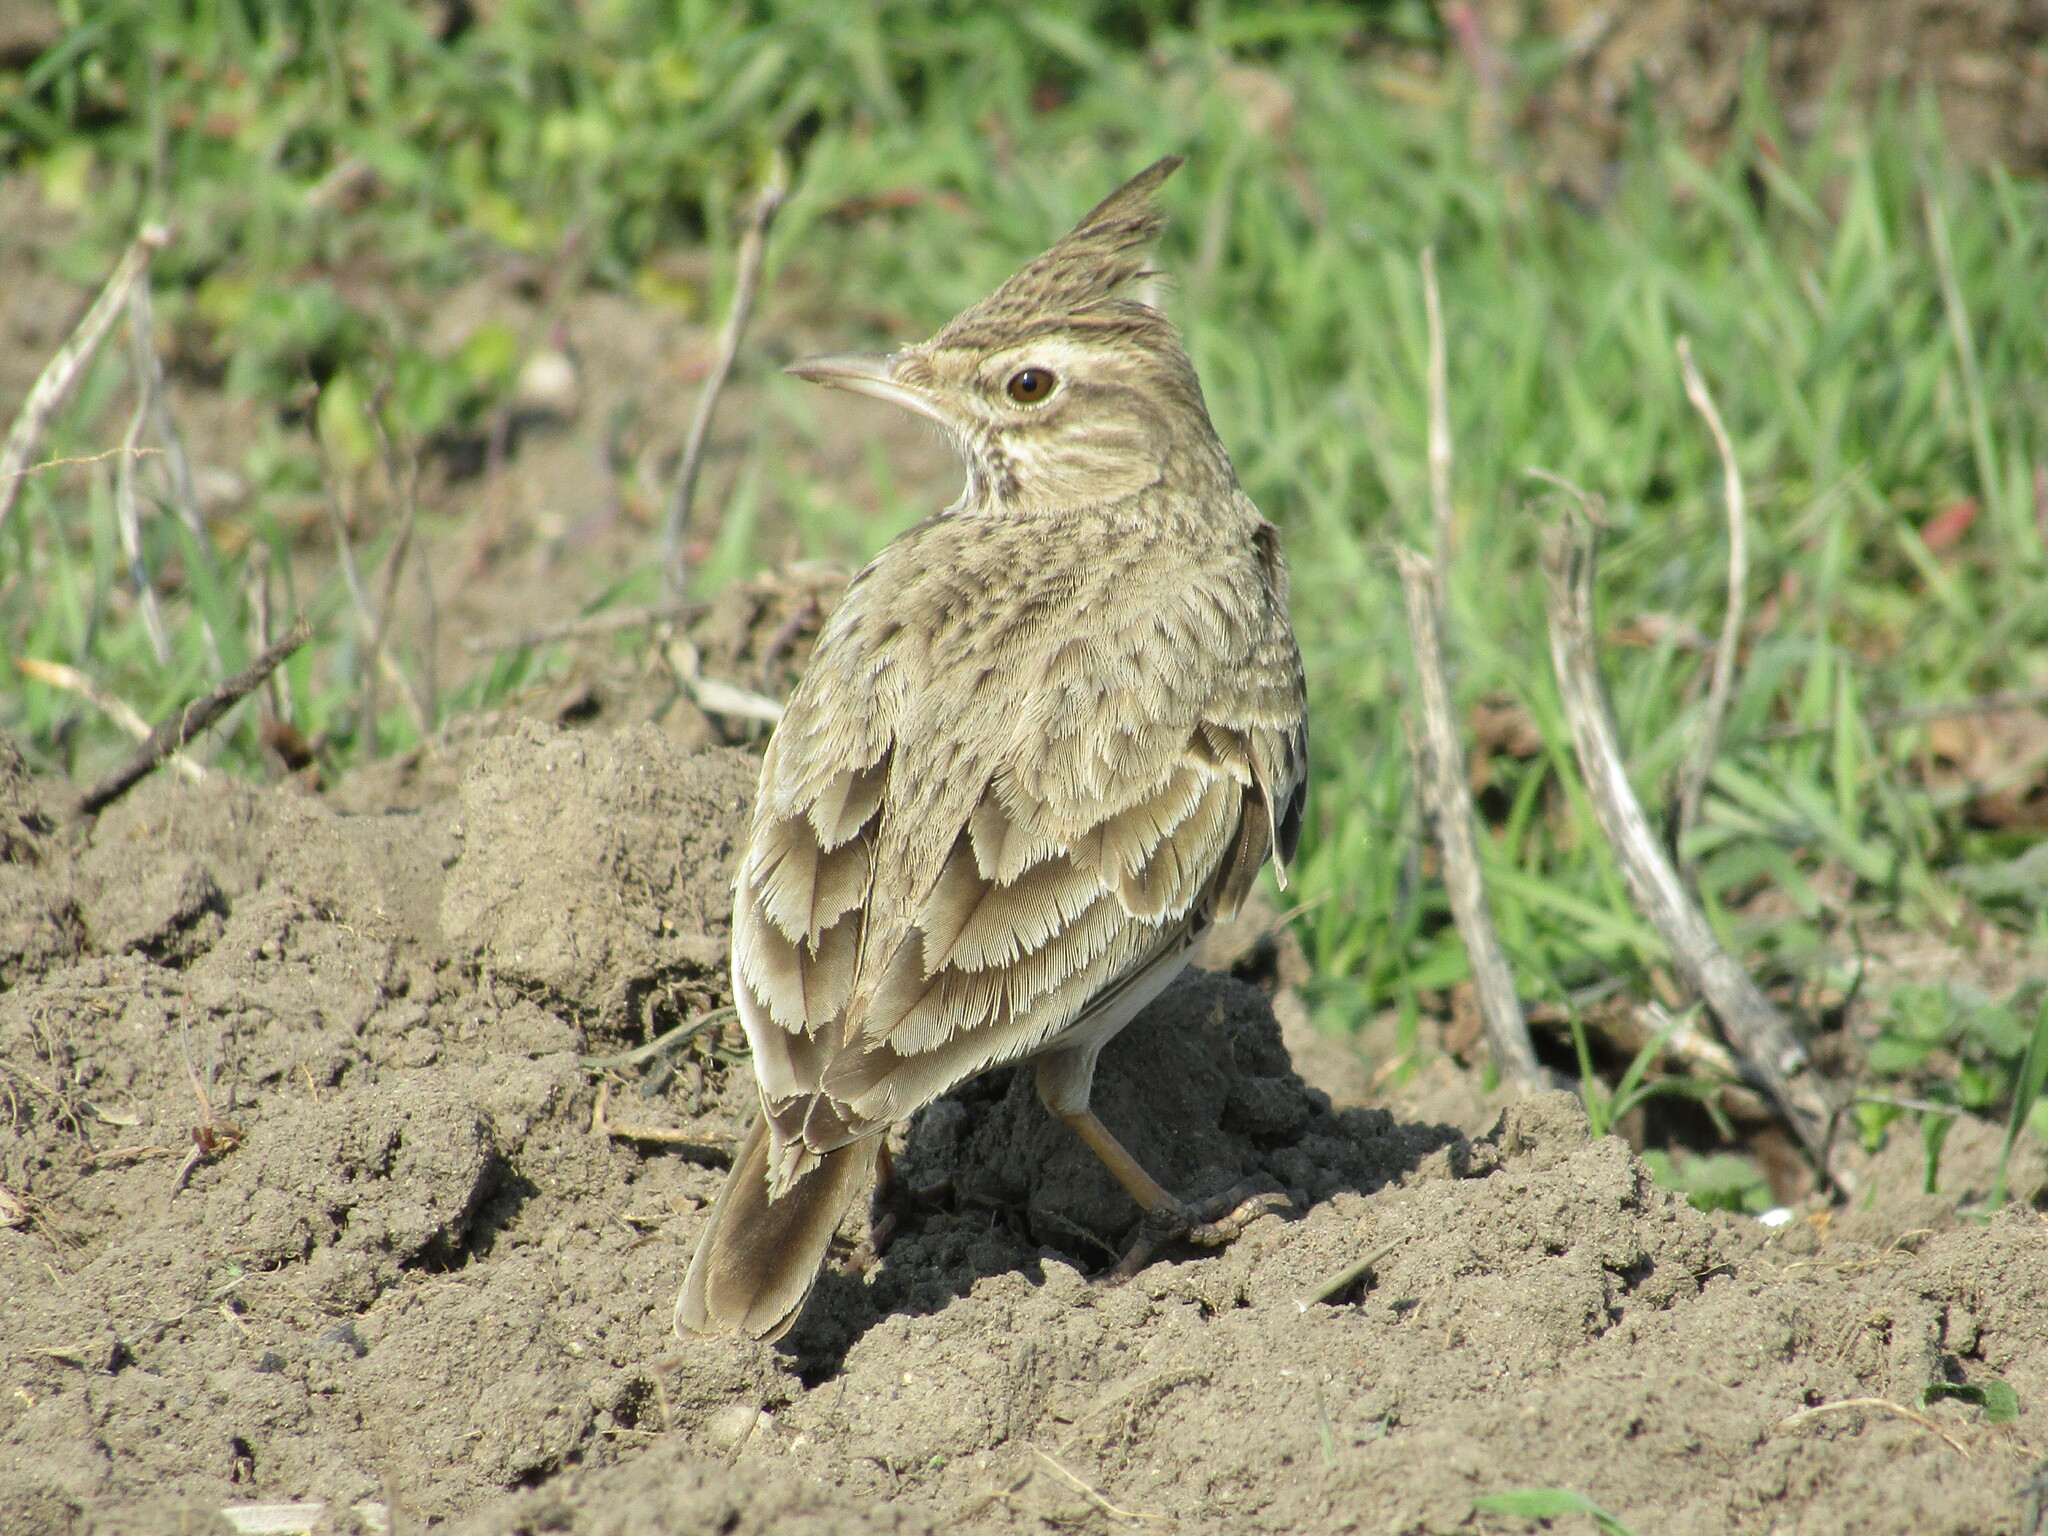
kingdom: Animalia
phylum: Chordata
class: Aves
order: Passeriformes
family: Alaudidae
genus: Galerida
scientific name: Galerida cristata
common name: Crested lark
